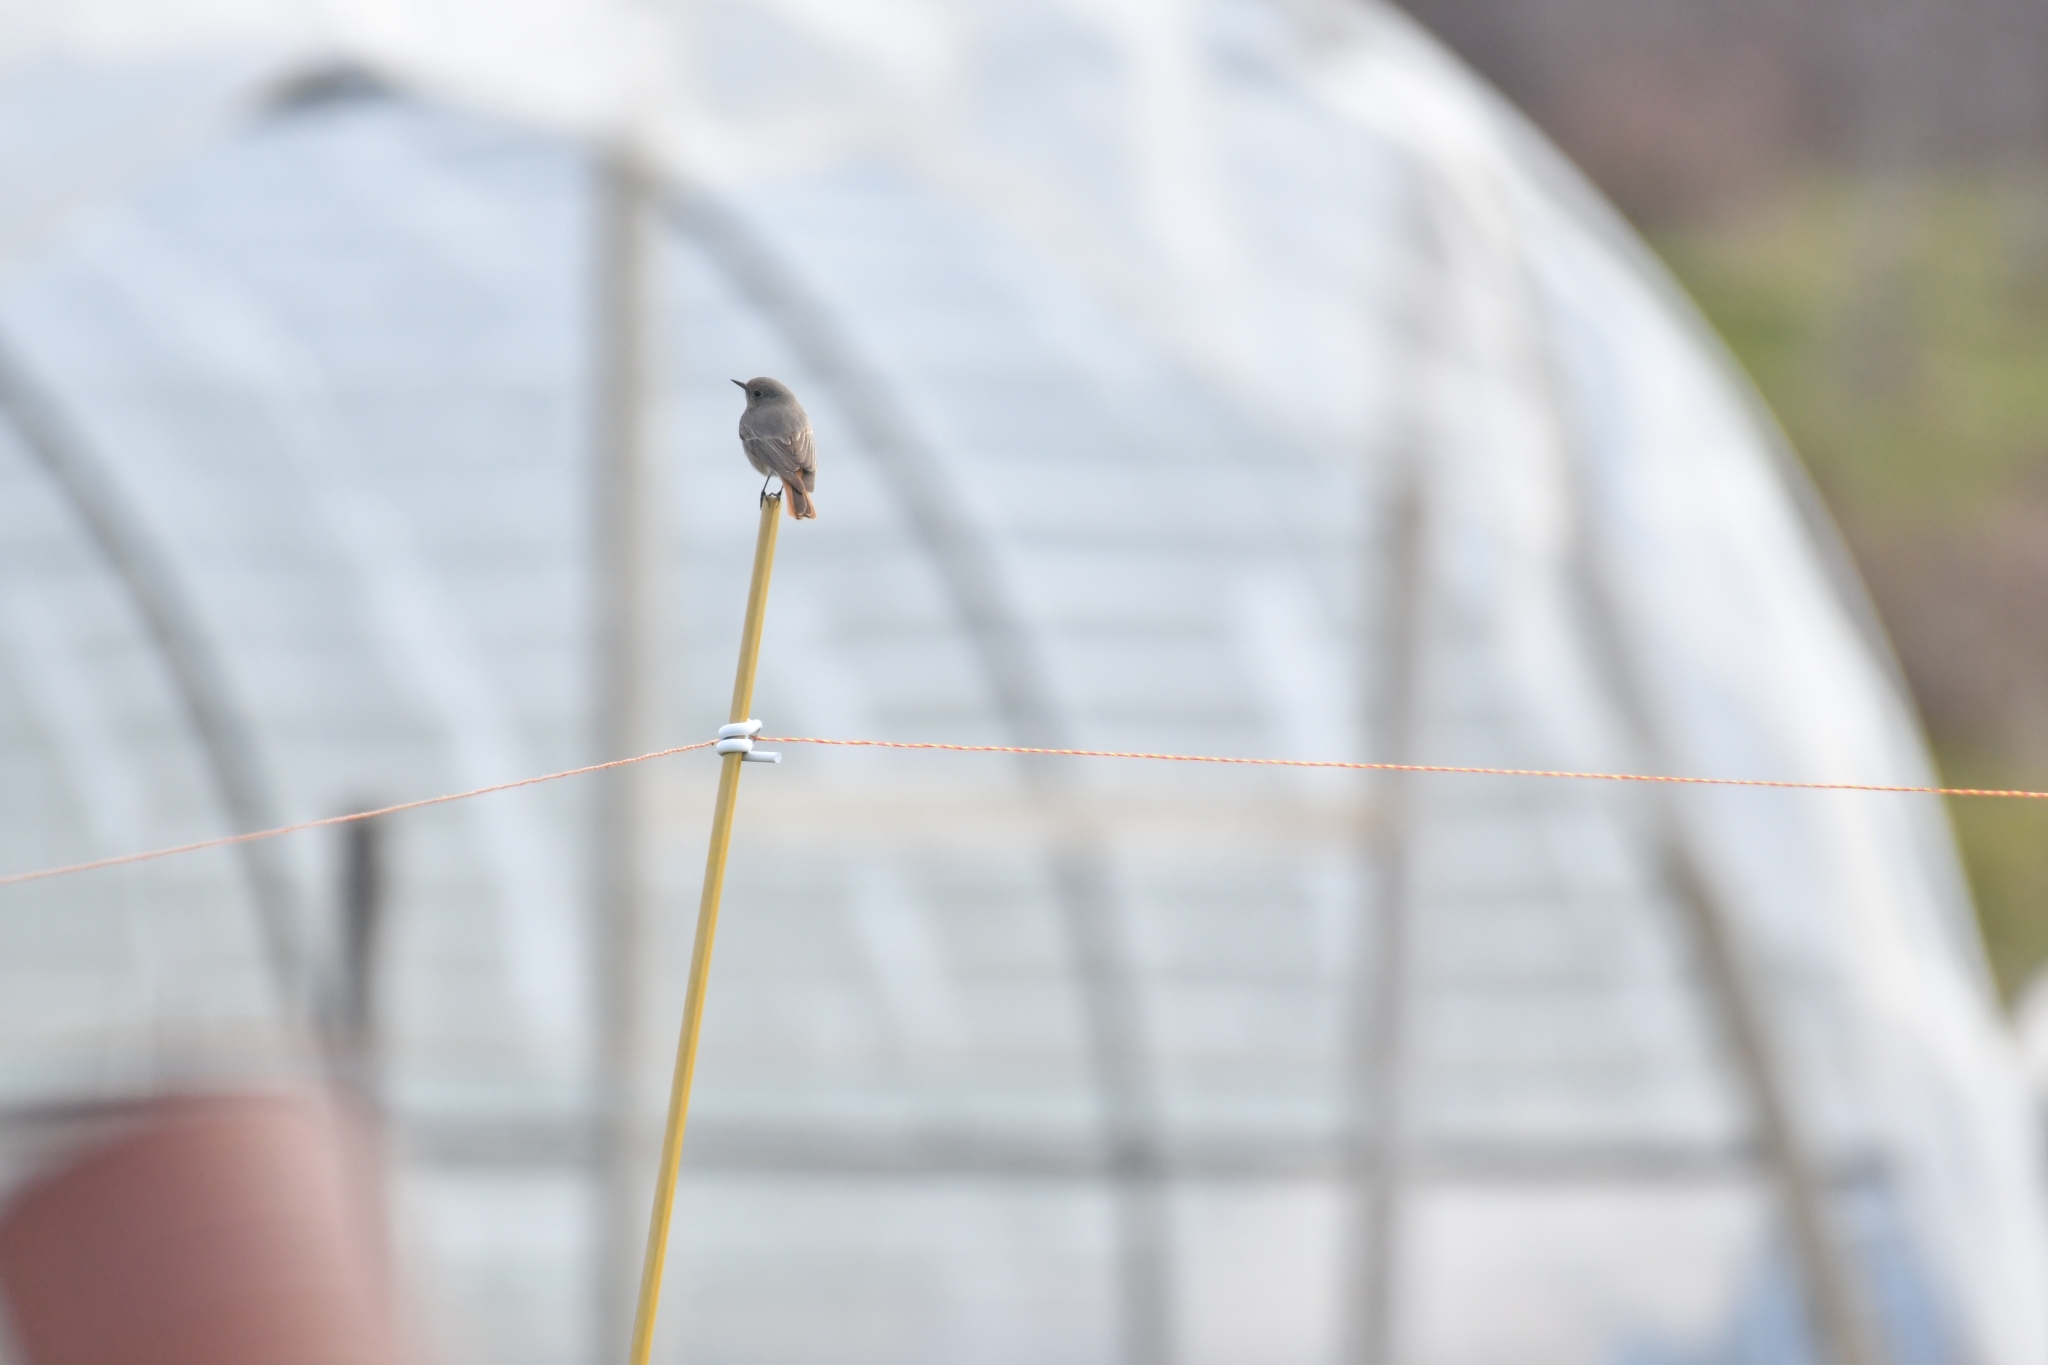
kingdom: Animalia
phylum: Chordata
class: Aves
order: Passeriformes
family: Muscicapidae
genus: Phoenicurus
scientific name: Phoenicurus ochruros
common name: Black redstart
